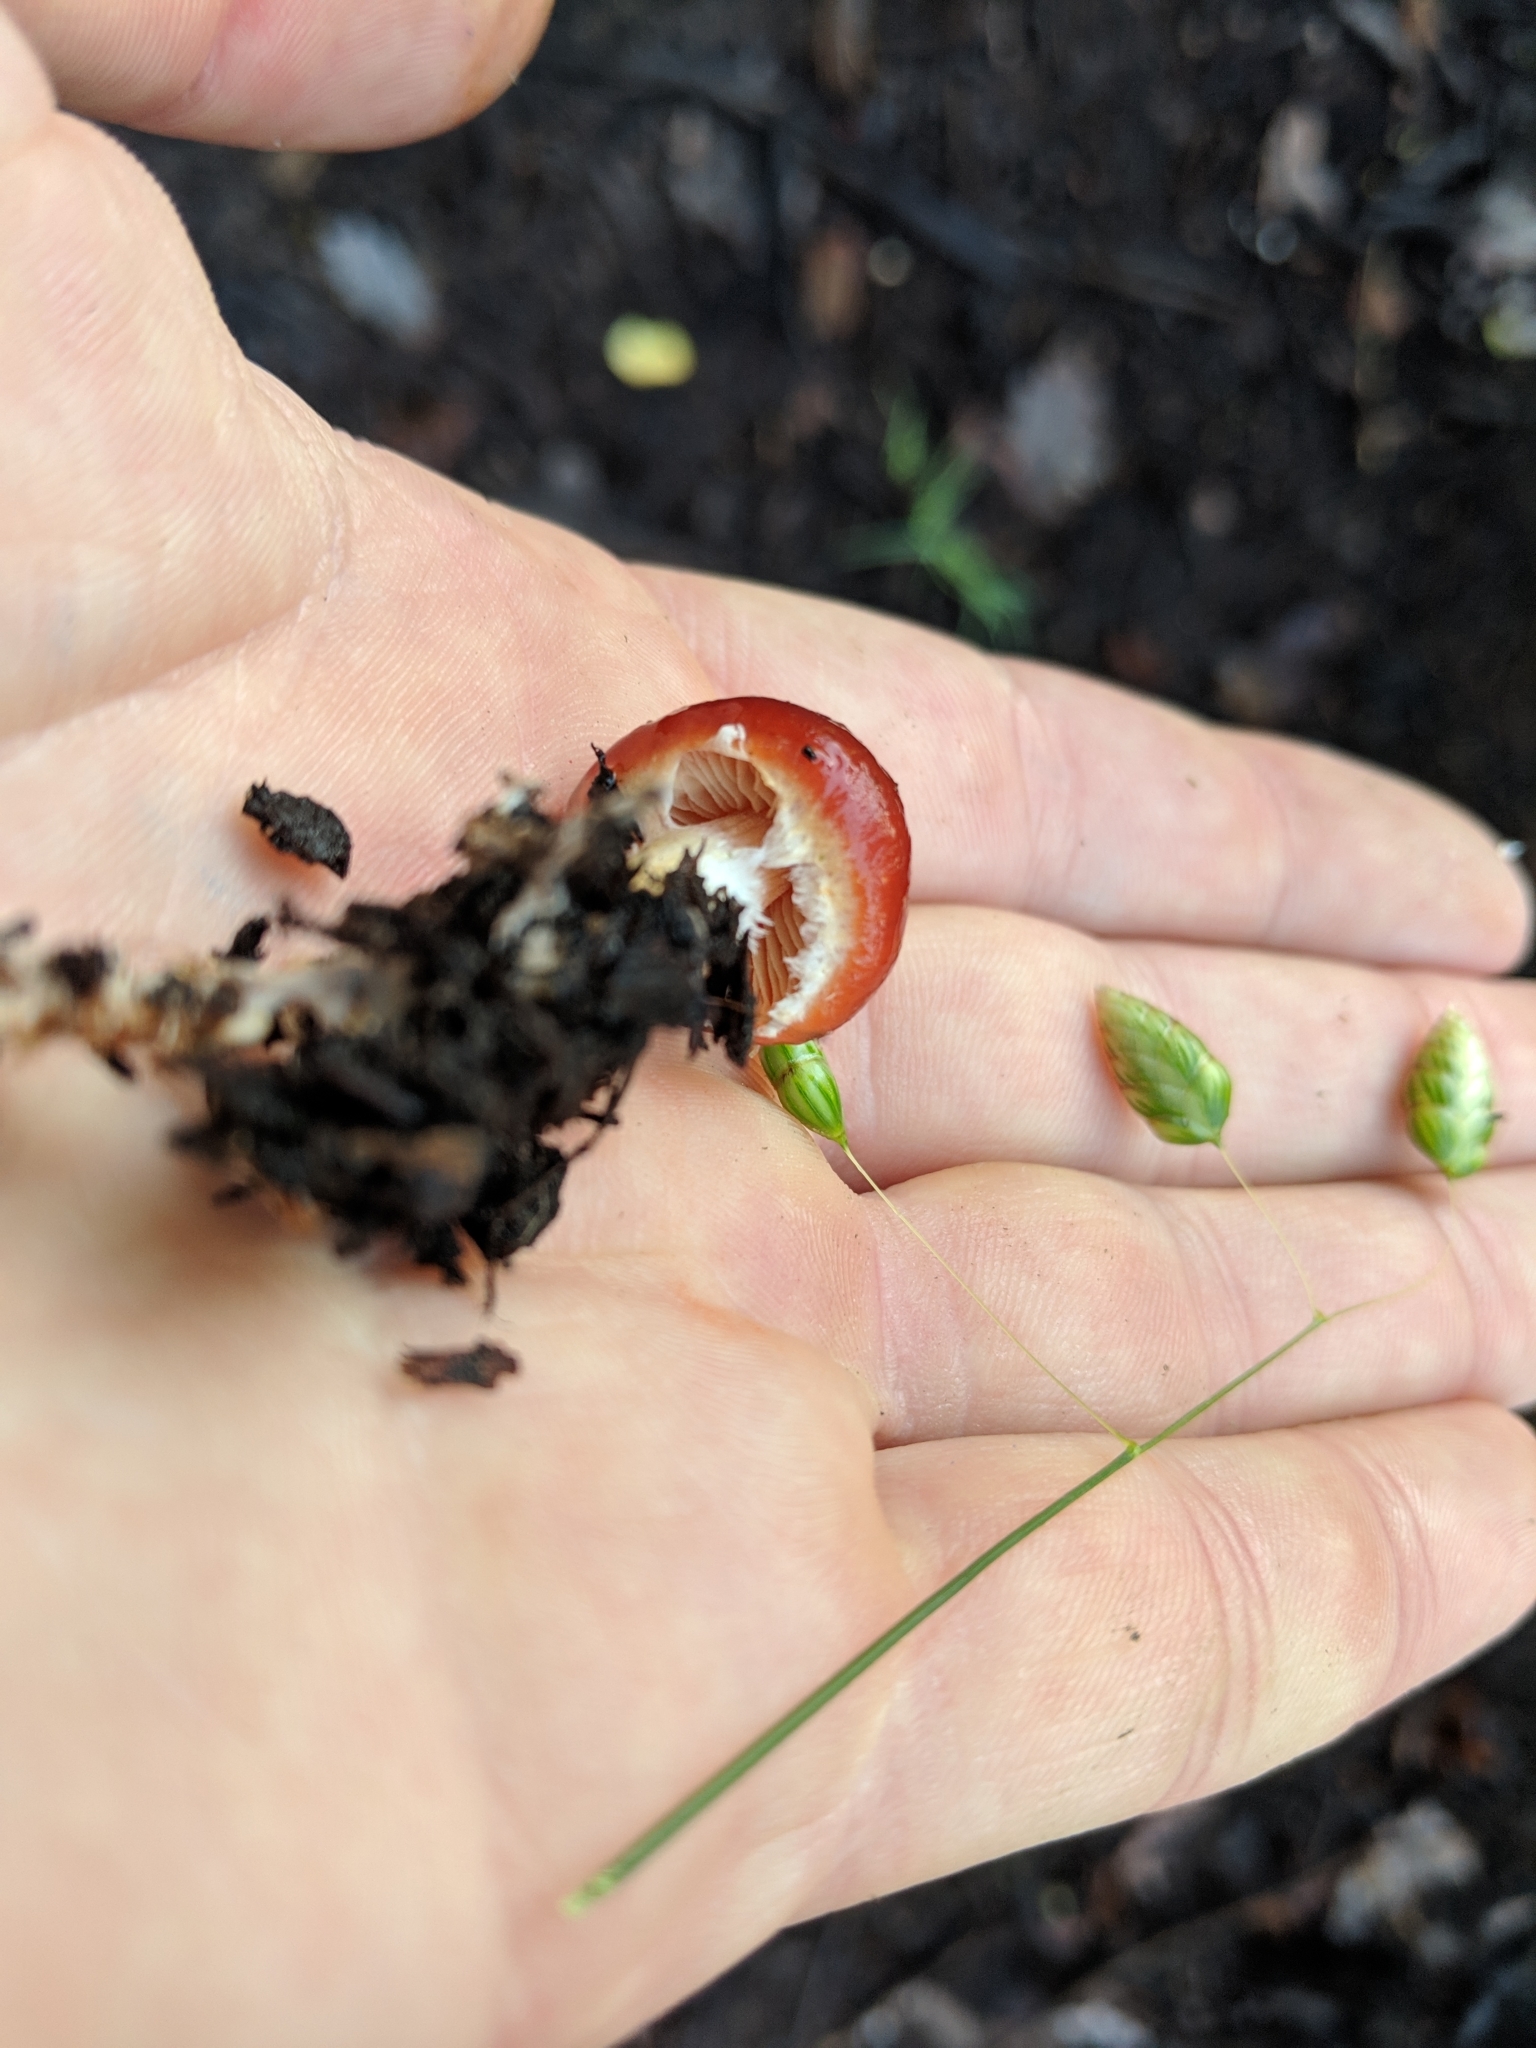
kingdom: Fungi
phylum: Basidiomycota
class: Agaricomycetes
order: Agaricales
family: Strophariaceae
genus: Leratiomyces
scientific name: Leratiomyces ceres
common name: Redlead roundhead
